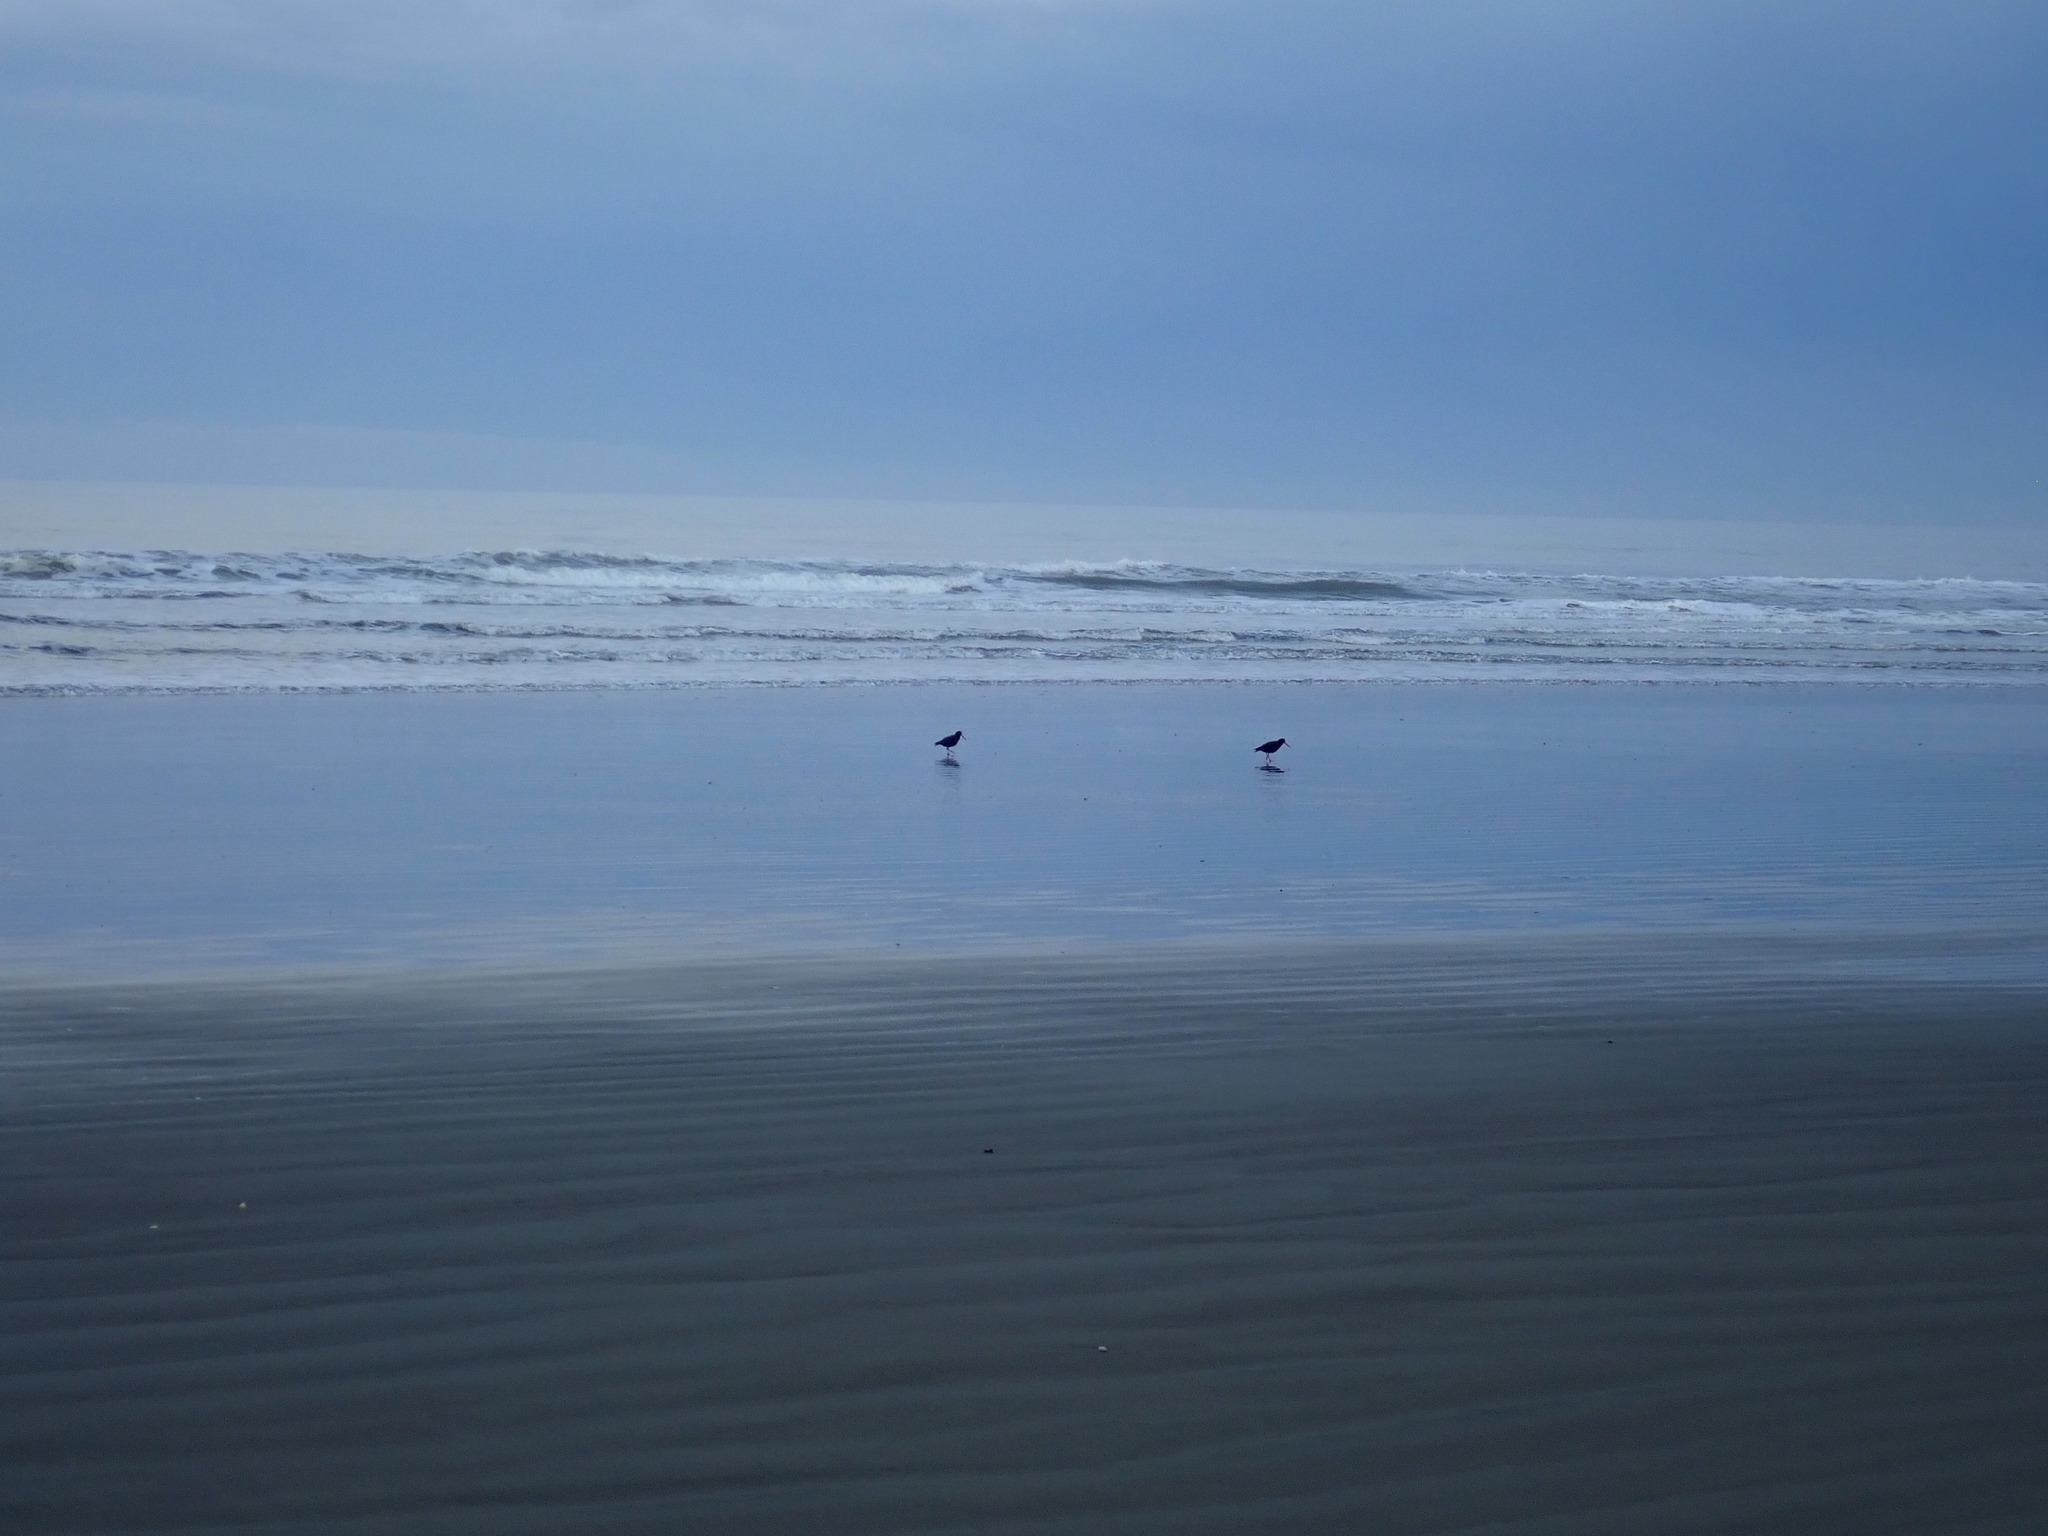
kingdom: Animalia
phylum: Chordata
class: Aves
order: Charadriiformes
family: Haematopodidae
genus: Haematopus
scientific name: Haematopus unicolor
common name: Variable oystercatcher
